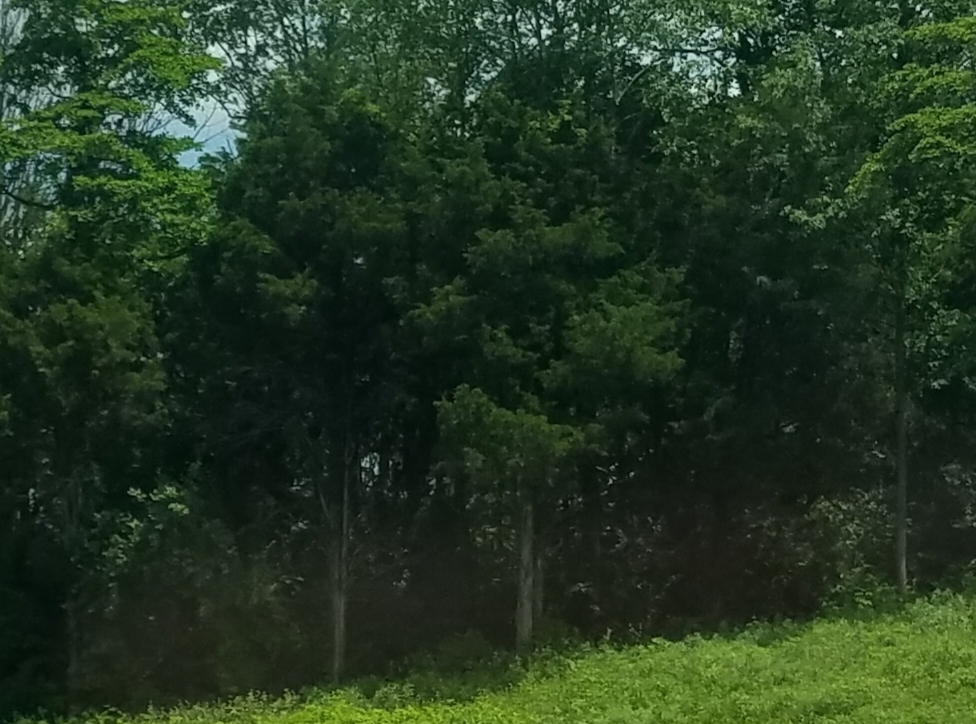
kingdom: Plantae
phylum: Tracheophyta
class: Pinopsida
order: Pinales
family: Cupressaceae
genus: Juniperus
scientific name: Juniperus virginiana
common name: Red juniper
